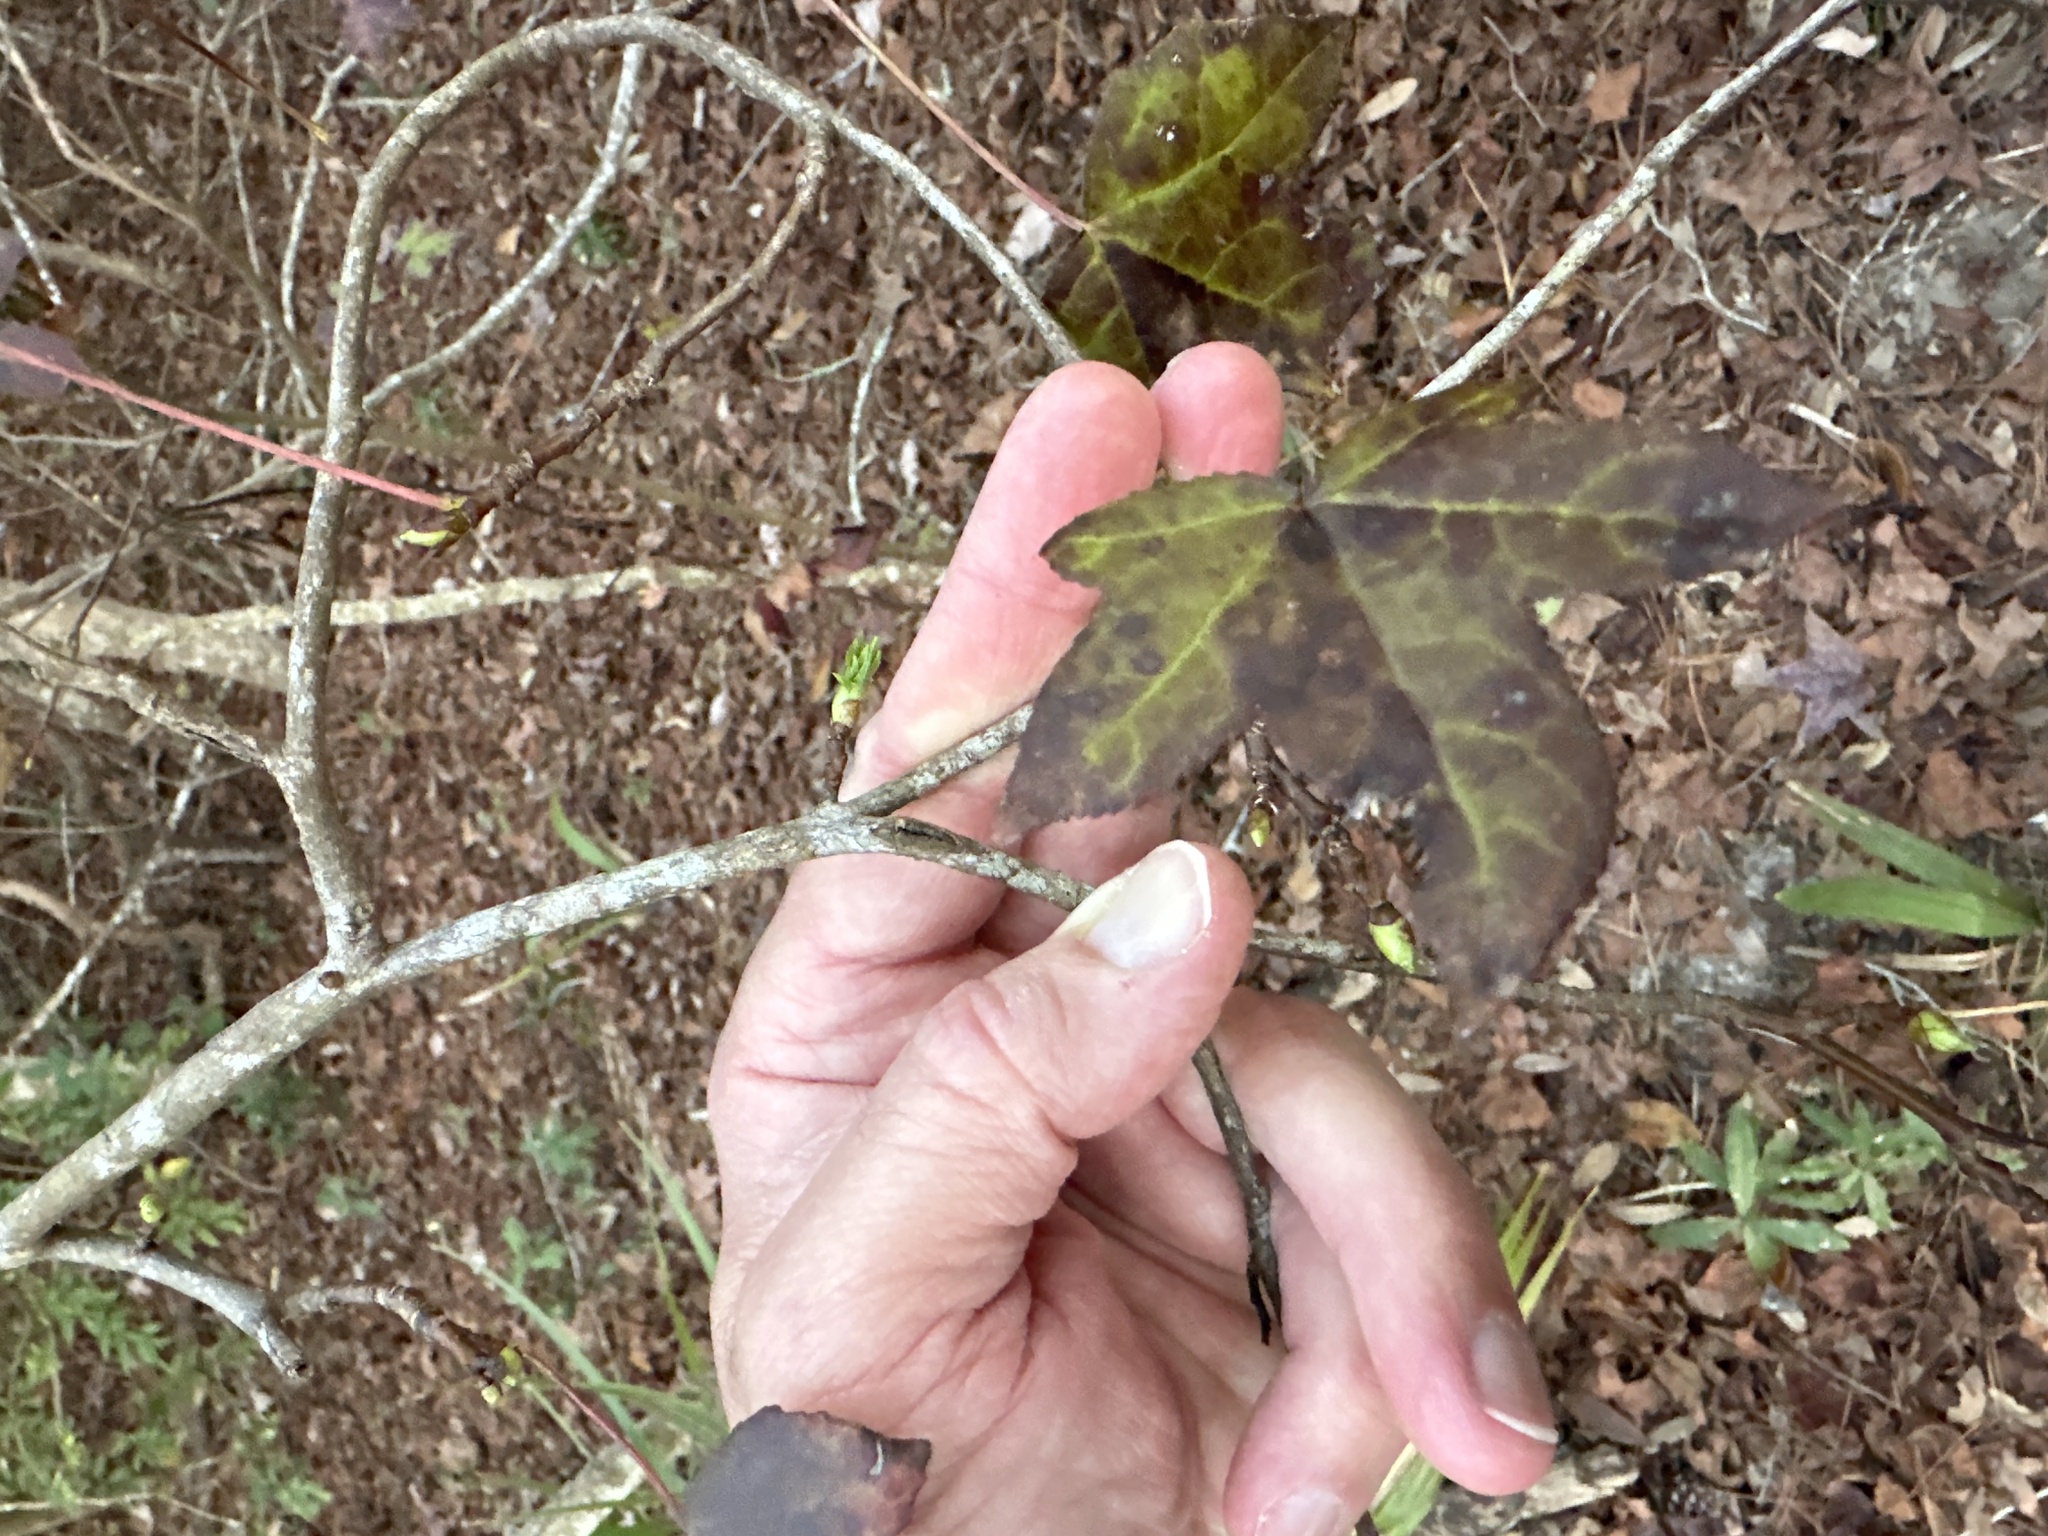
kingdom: Plantae
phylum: Tracheophyta
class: Magnoliopsida
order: Saxifragales
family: Altingiaceae
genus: Liquidambar
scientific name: Liquidambar styraciflua
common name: Sweet gum
